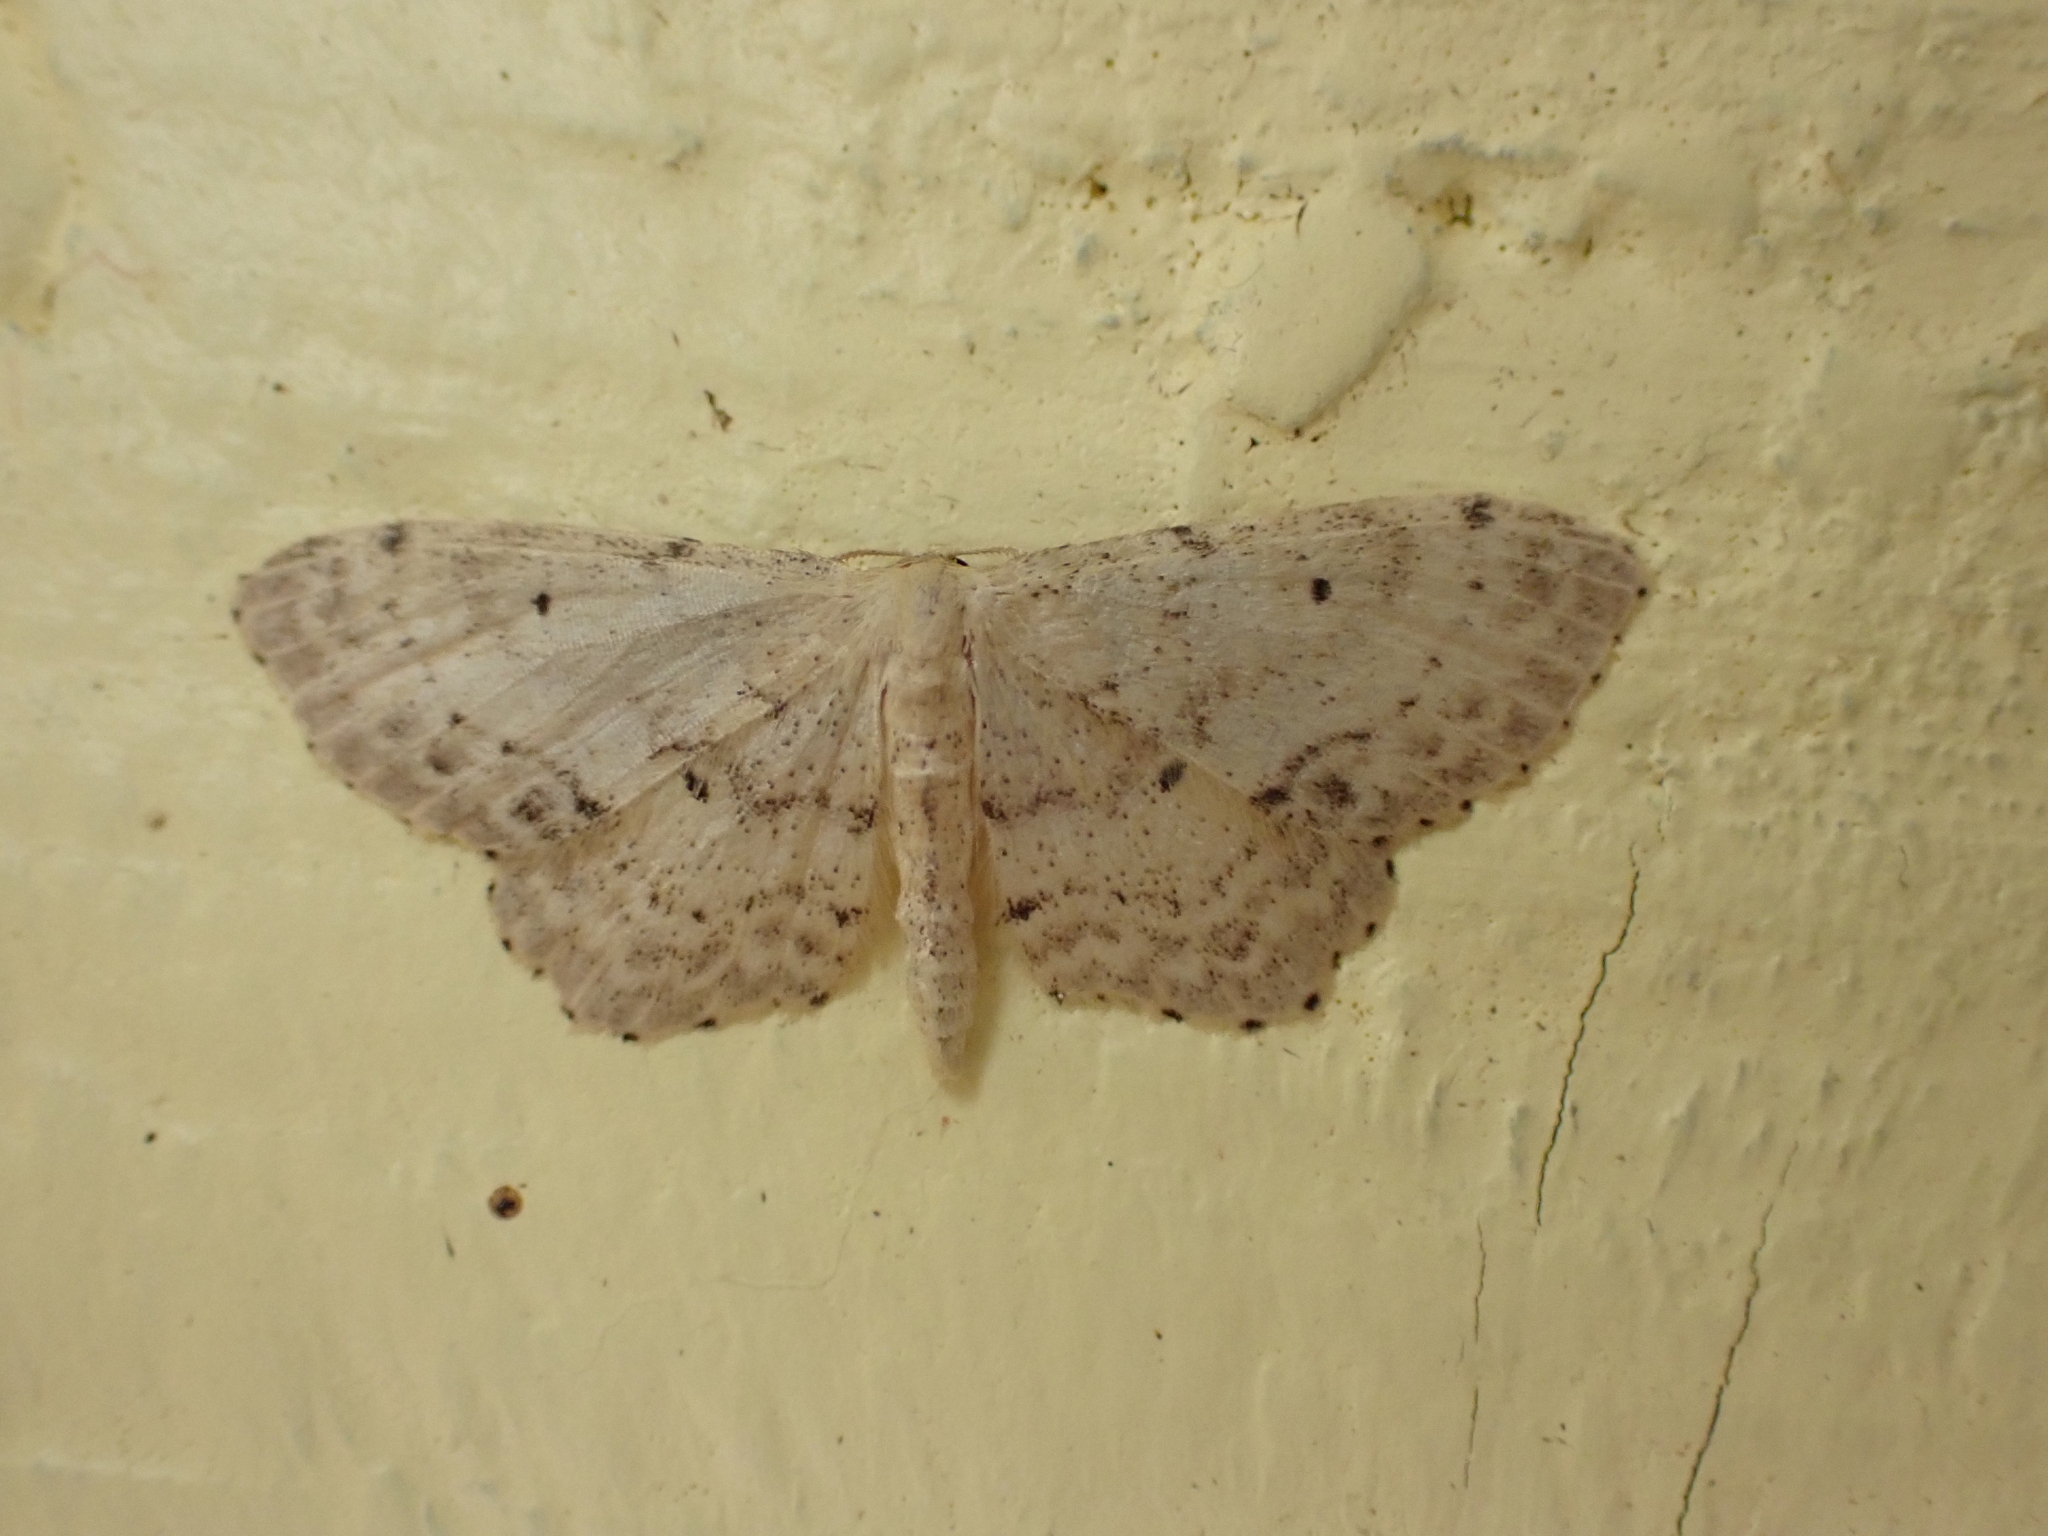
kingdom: Animalia
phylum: Arthropoda
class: Insecta
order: Lepidoptera
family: Geometridae
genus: Idaea
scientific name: Idaea dimidiata
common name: Single-dotted wave
